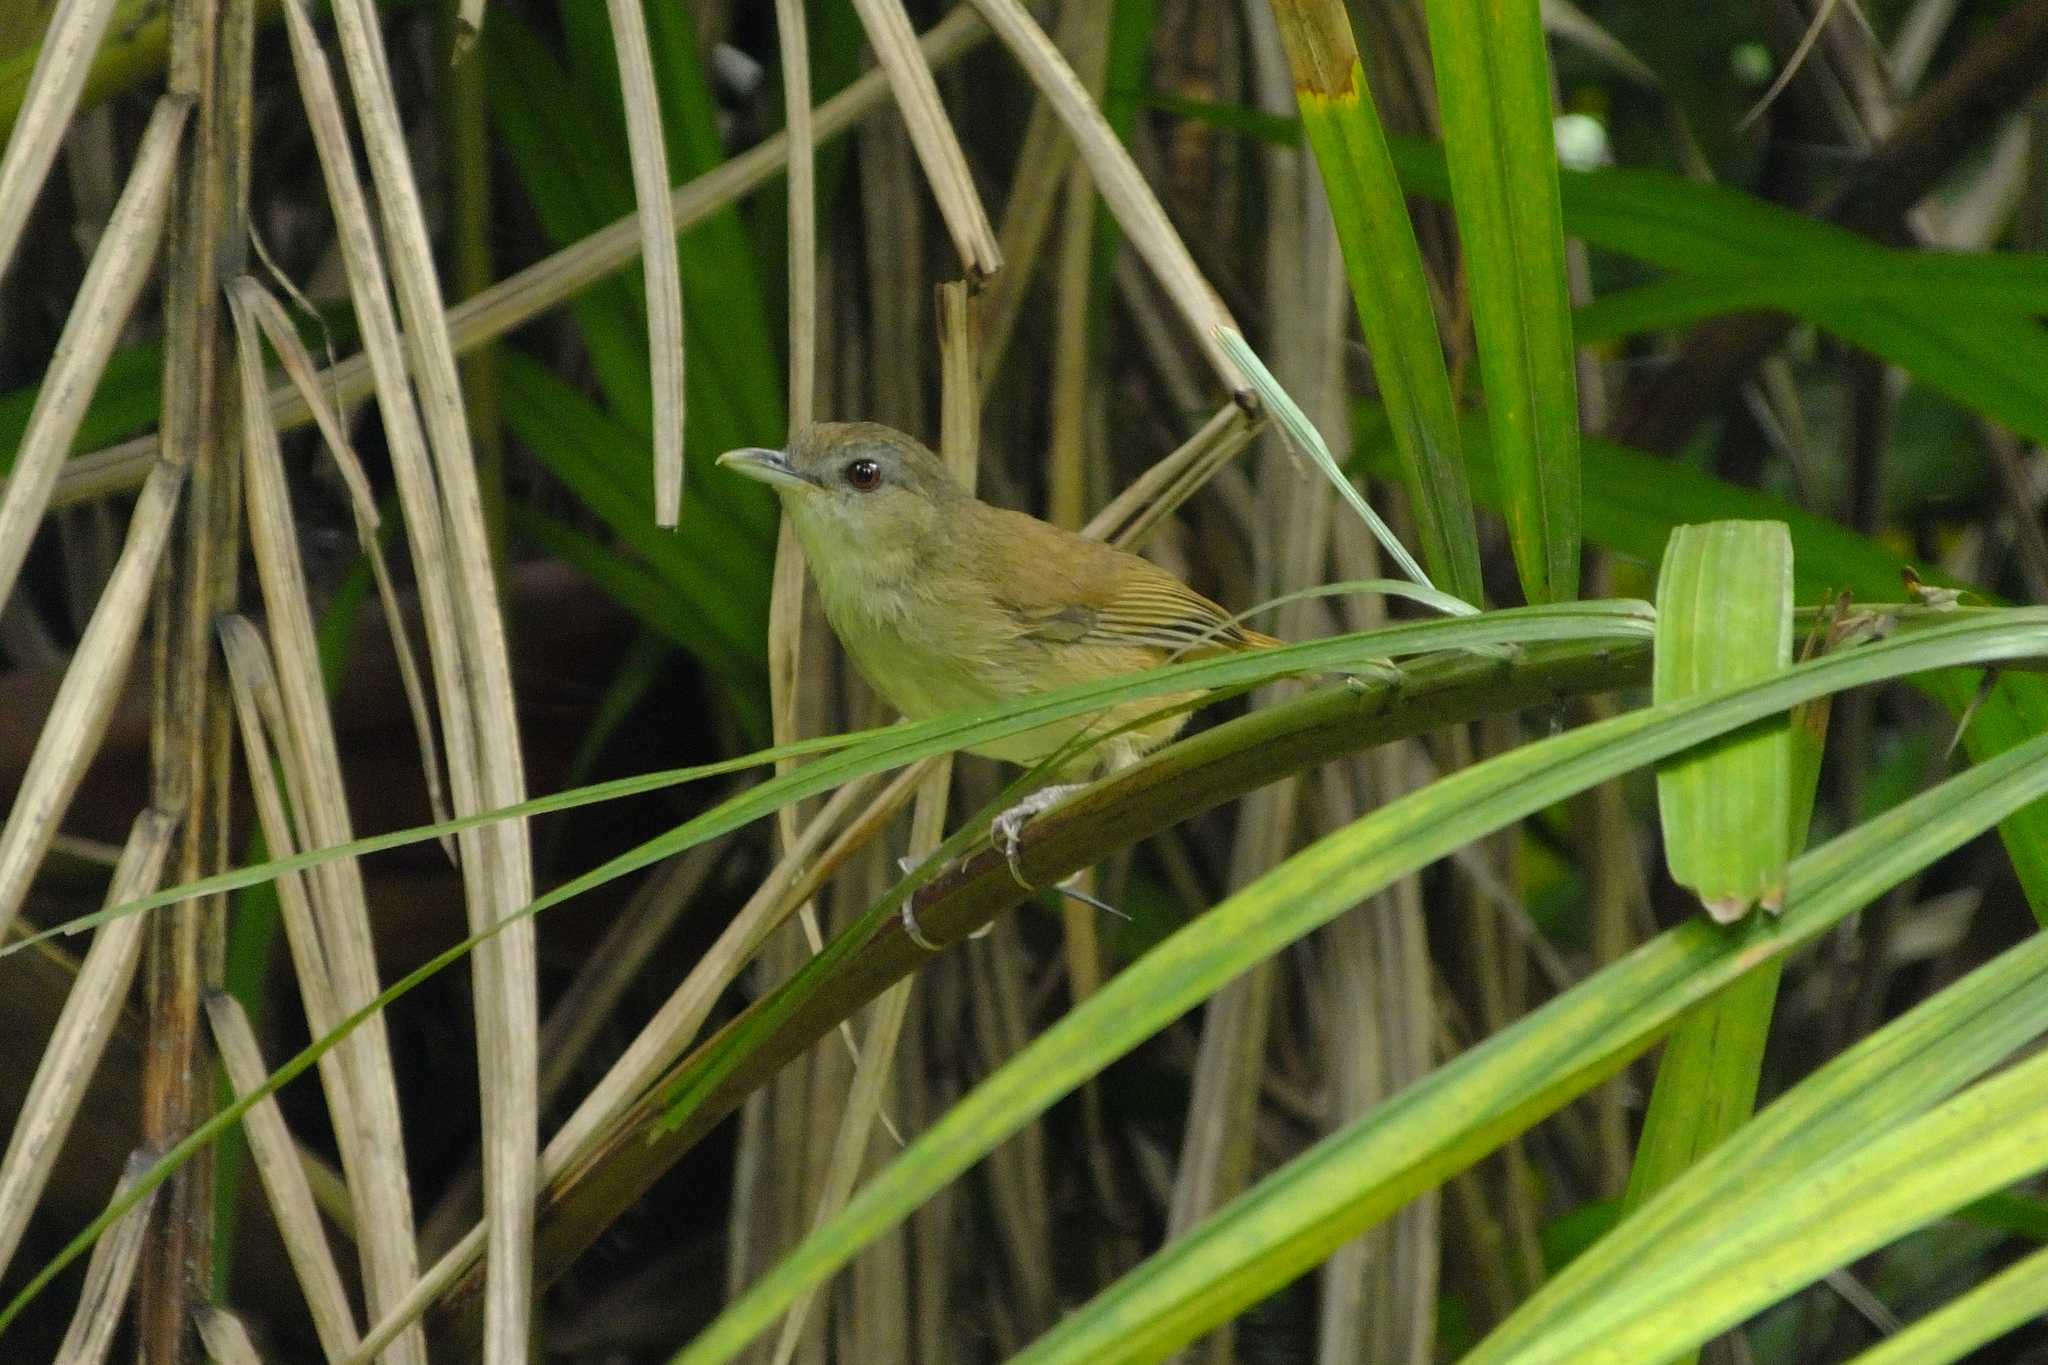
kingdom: Animalia
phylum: Chordata
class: Aves
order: Passeriformes
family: Pellorneidae
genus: Malacocincla
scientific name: Malacocincla sepiaria
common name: Horsfield's babbler
